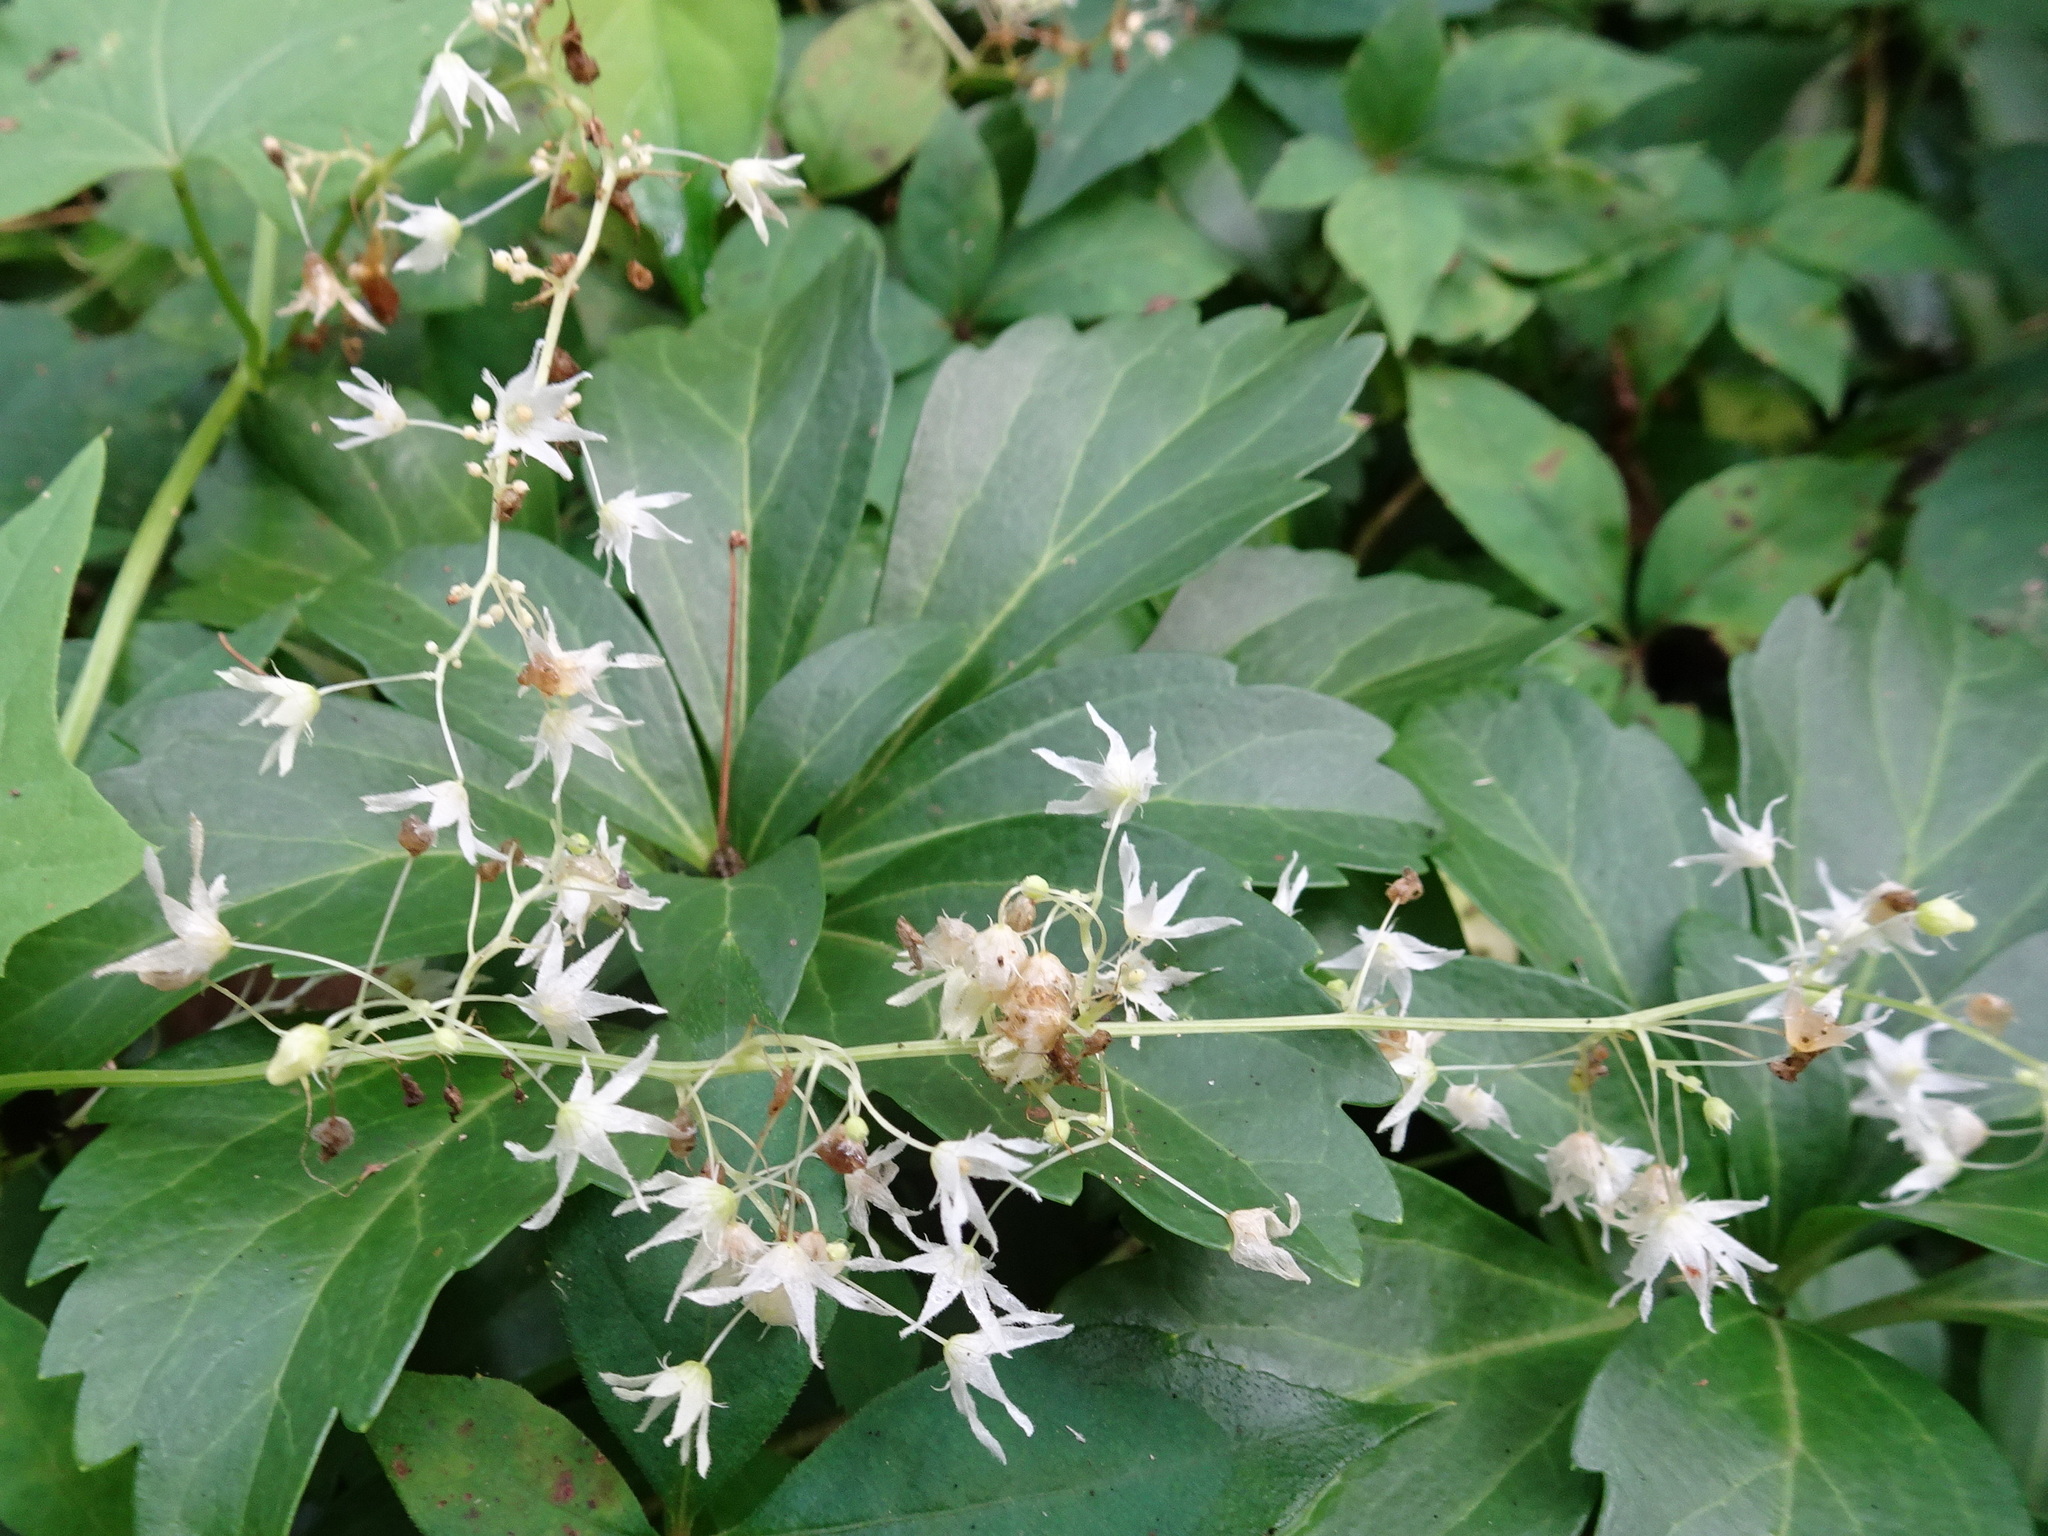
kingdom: Plantae
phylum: Tracheophyta
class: Magnoliopsida
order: Cucurbitales
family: Cucurbitaceae
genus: Echinocystis
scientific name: Echinocystis lobata
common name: Wild cucumber
